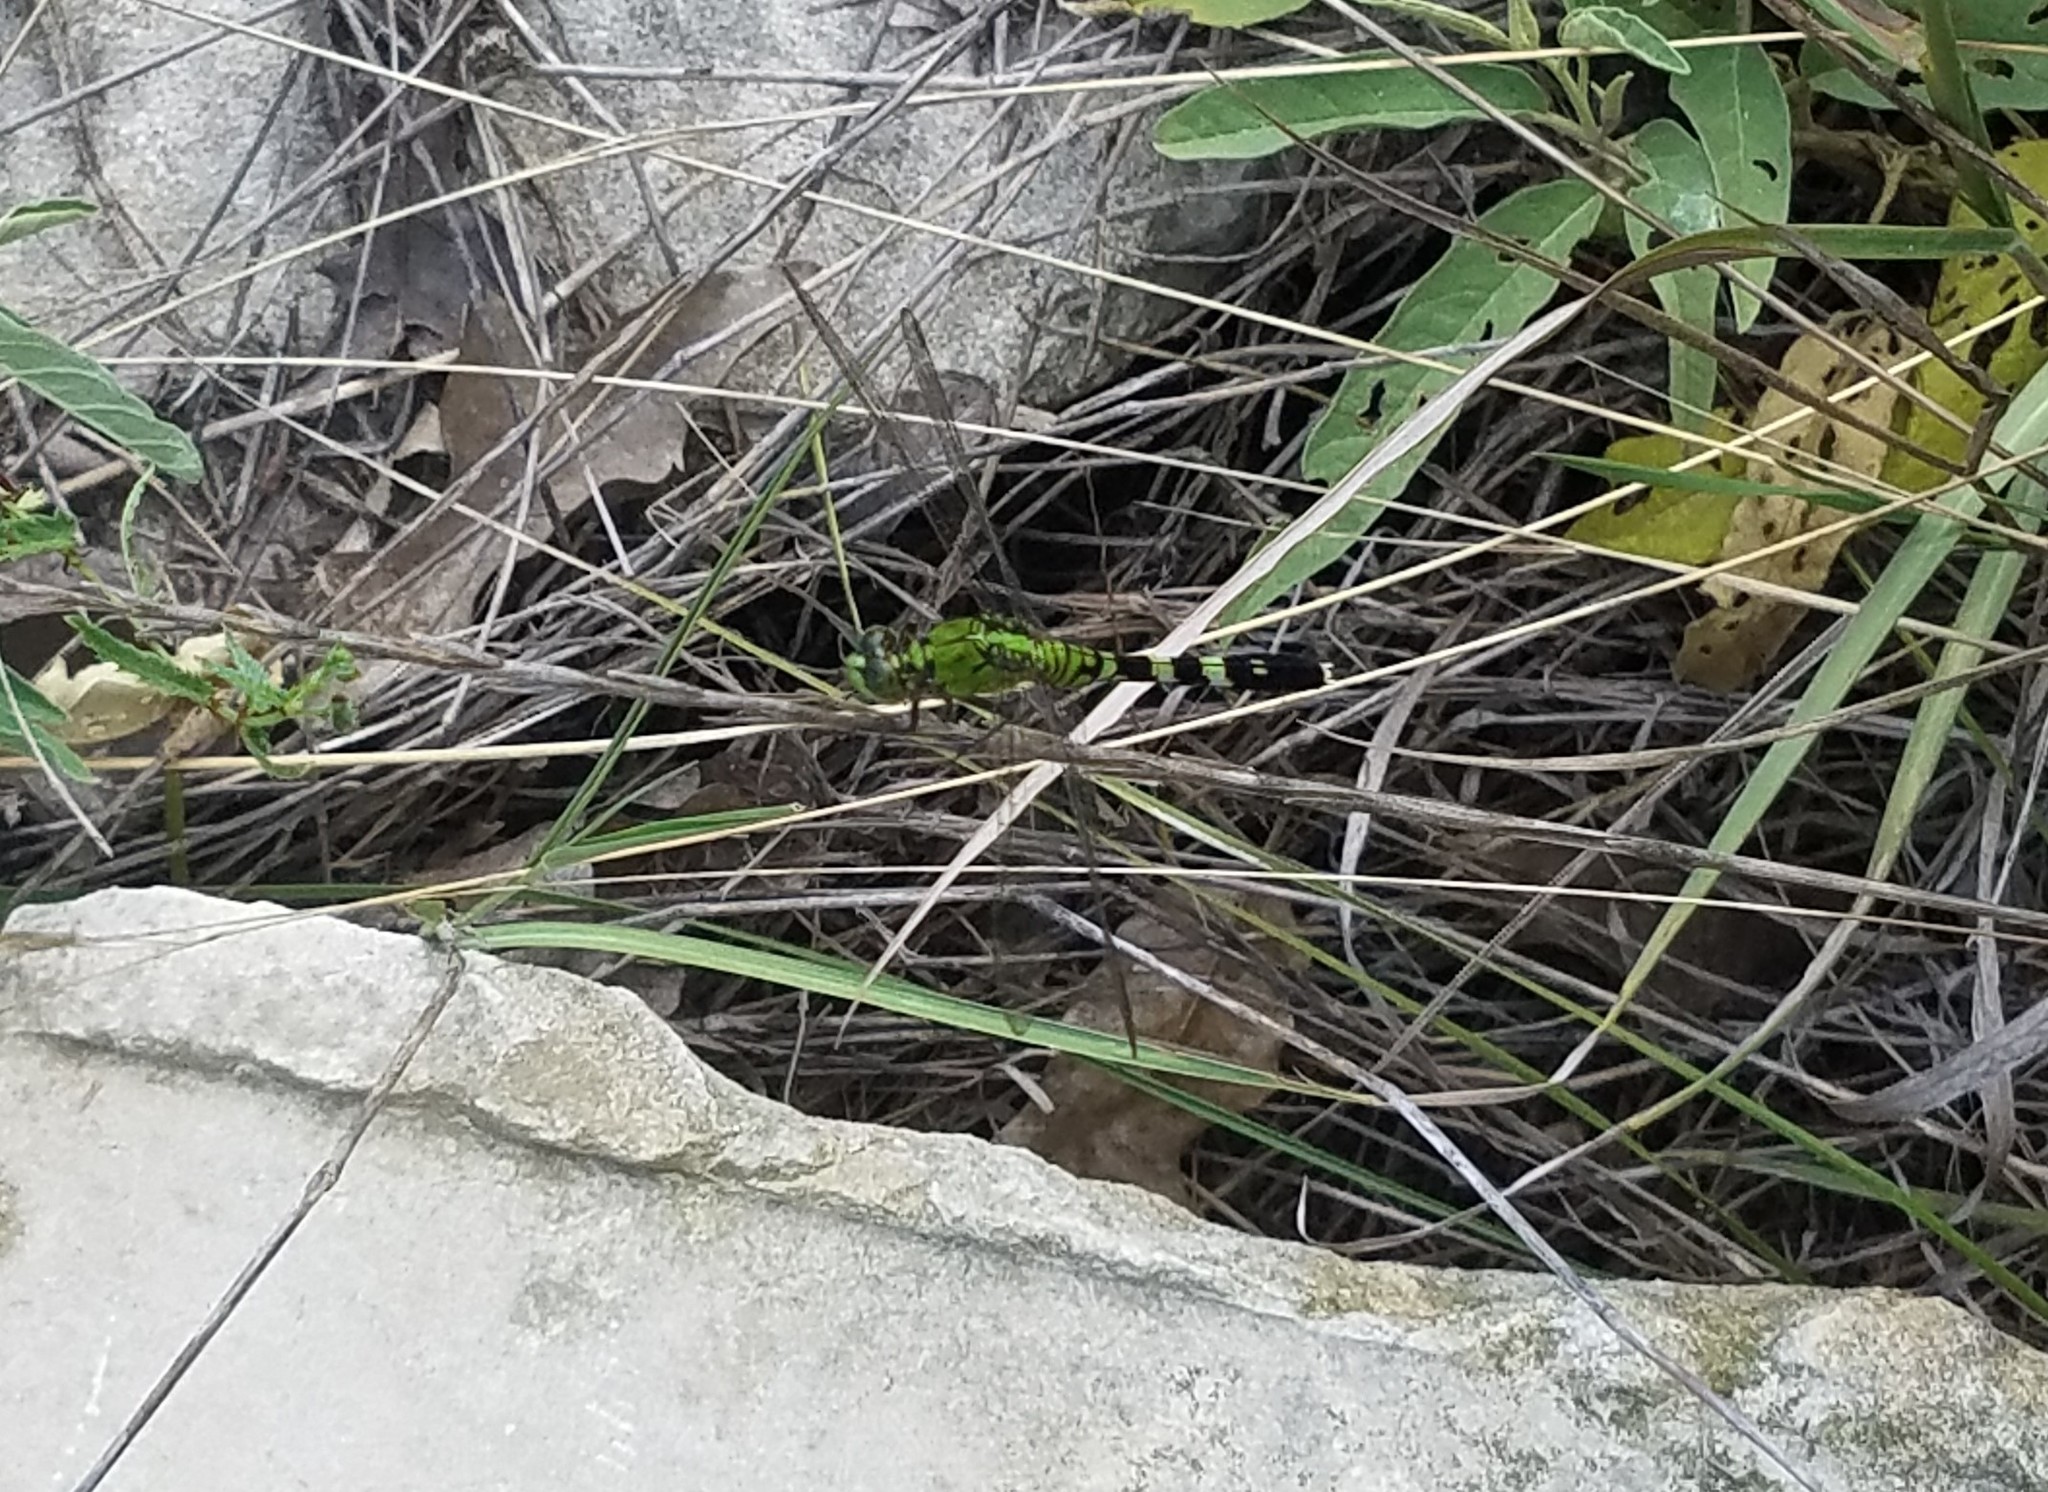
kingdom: Animalia
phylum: Arthropoda
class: Insecta
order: Odonata
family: Libellulidae
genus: Erythemis
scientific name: Erythemis simplicicollis
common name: Eastern pondhawk
